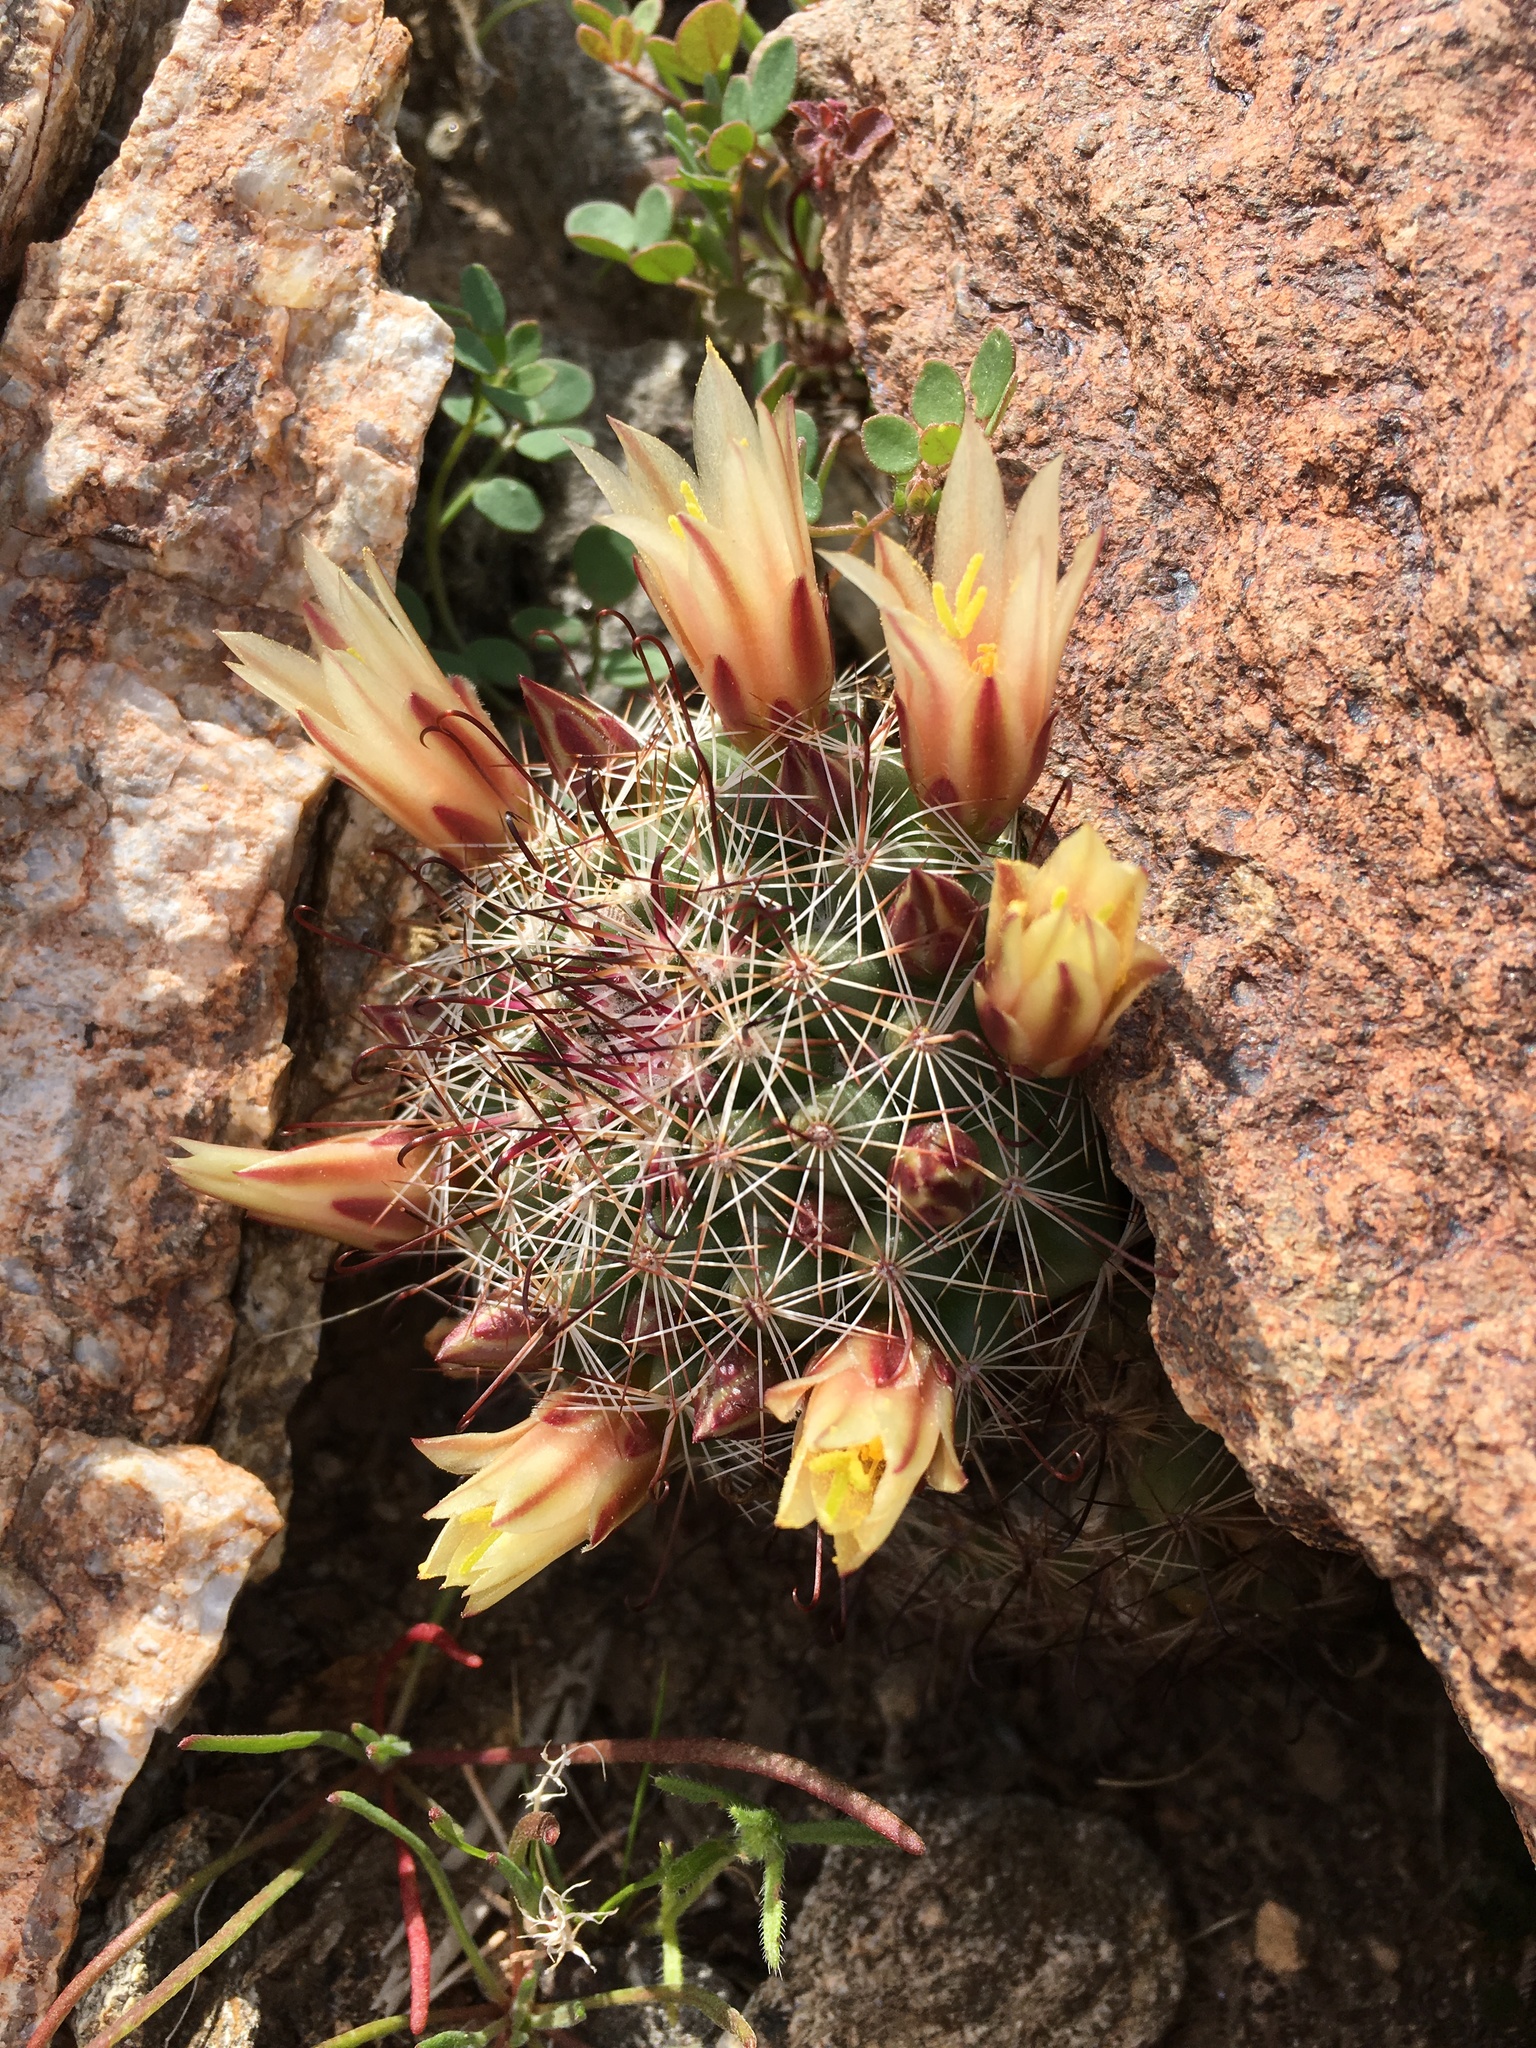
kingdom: Plantae
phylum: Tracheophyta
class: Magnoliopsida
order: Caryophyllales
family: Cactaceae
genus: Cochemiea
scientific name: Cochemiea dioica
